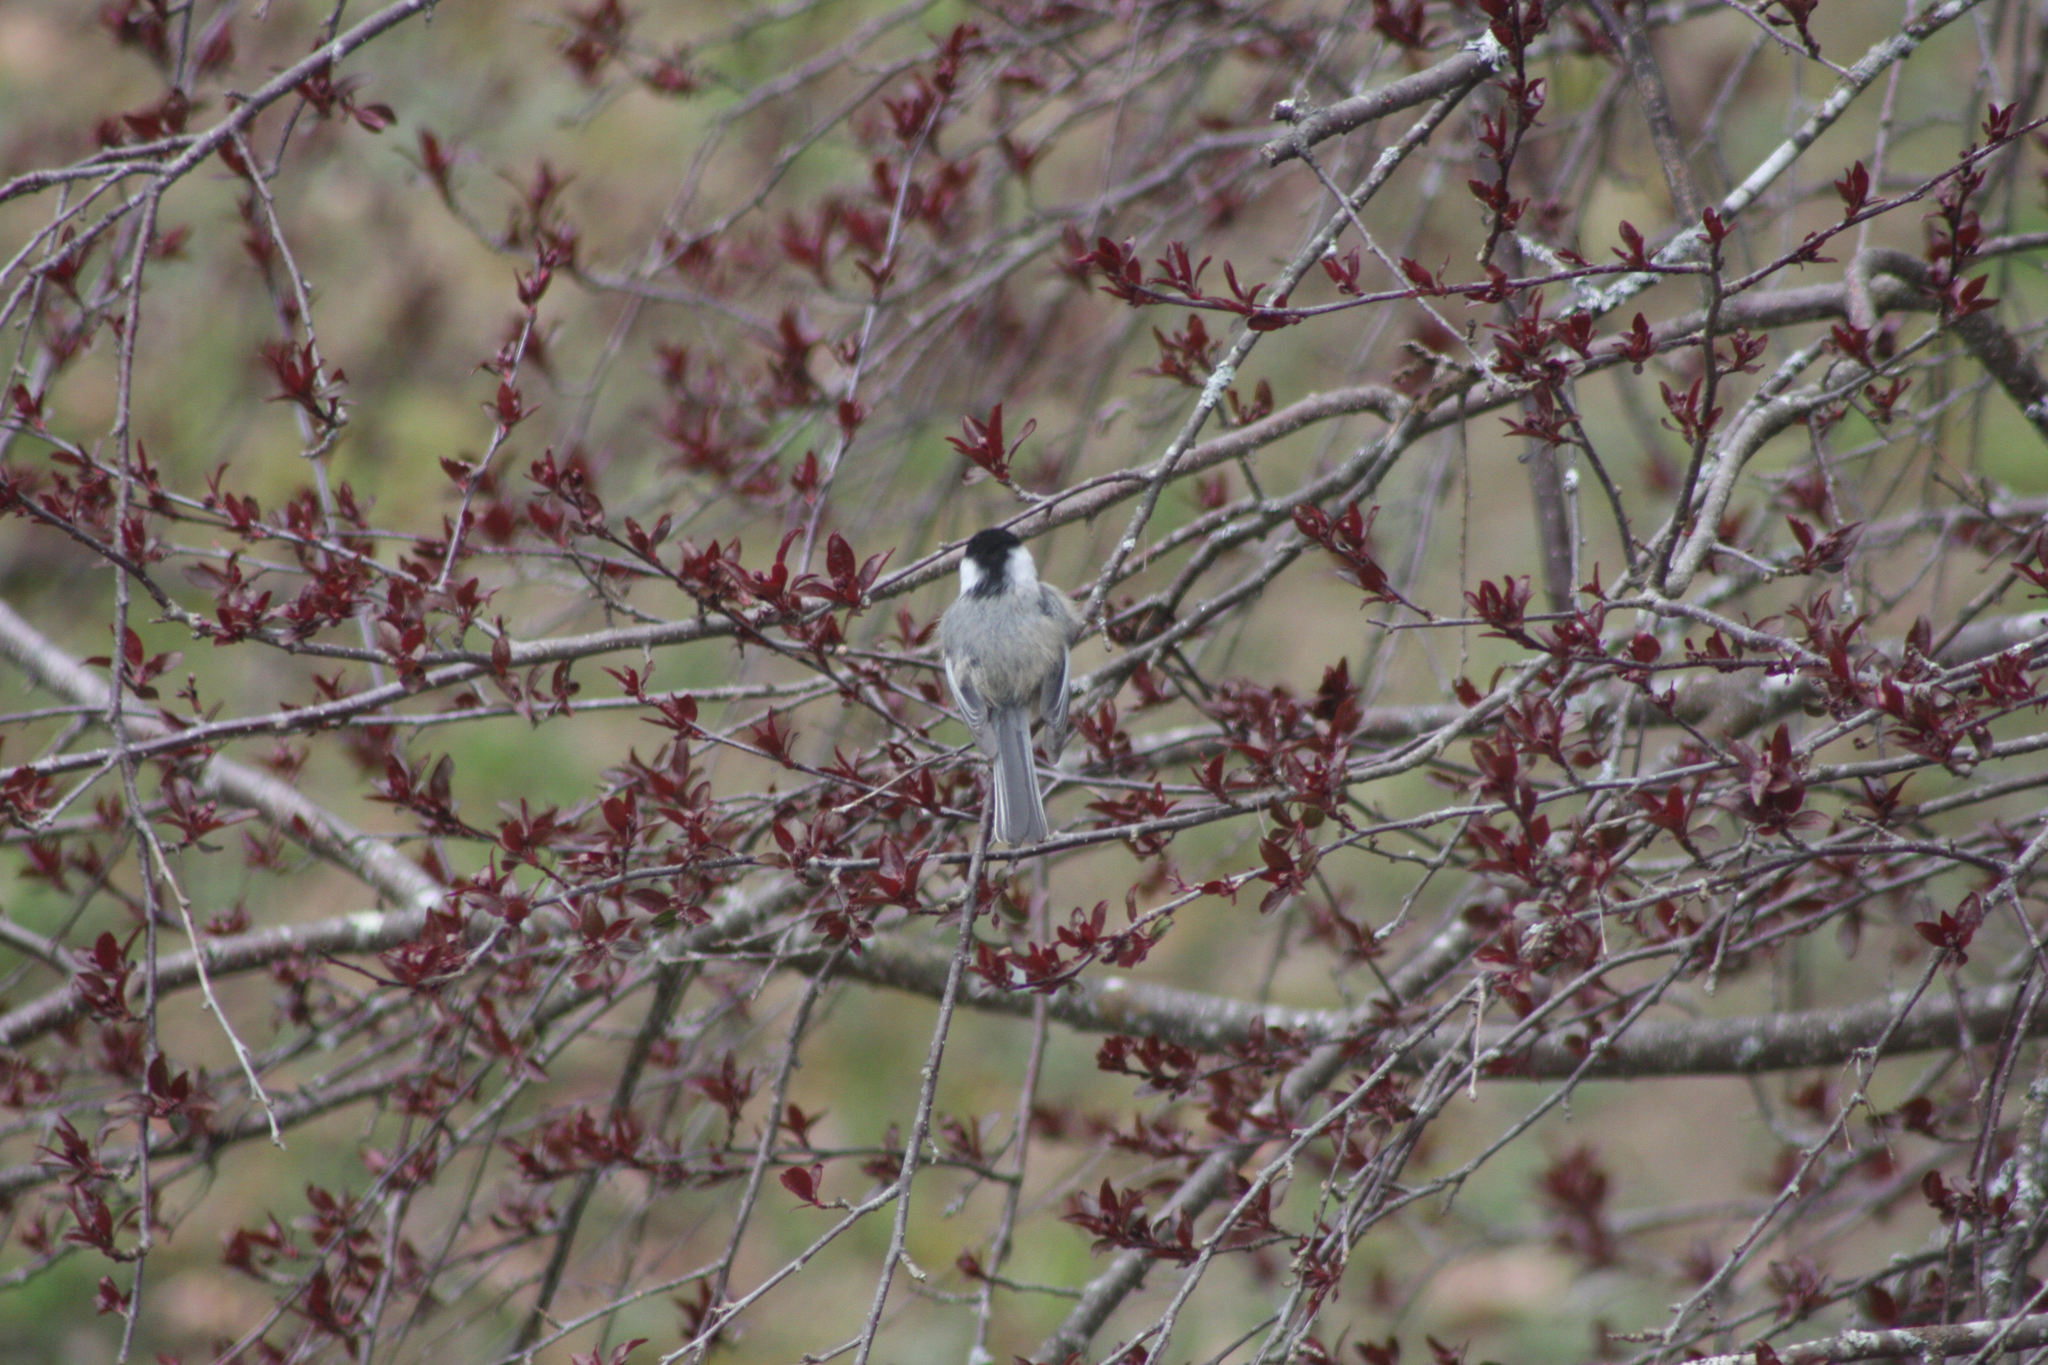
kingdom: Animalia
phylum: Chordata
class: Aves
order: Passeriformes
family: Paridae
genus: Poecile
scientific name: Poecile atricapillus
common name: Black-capped chickadee
